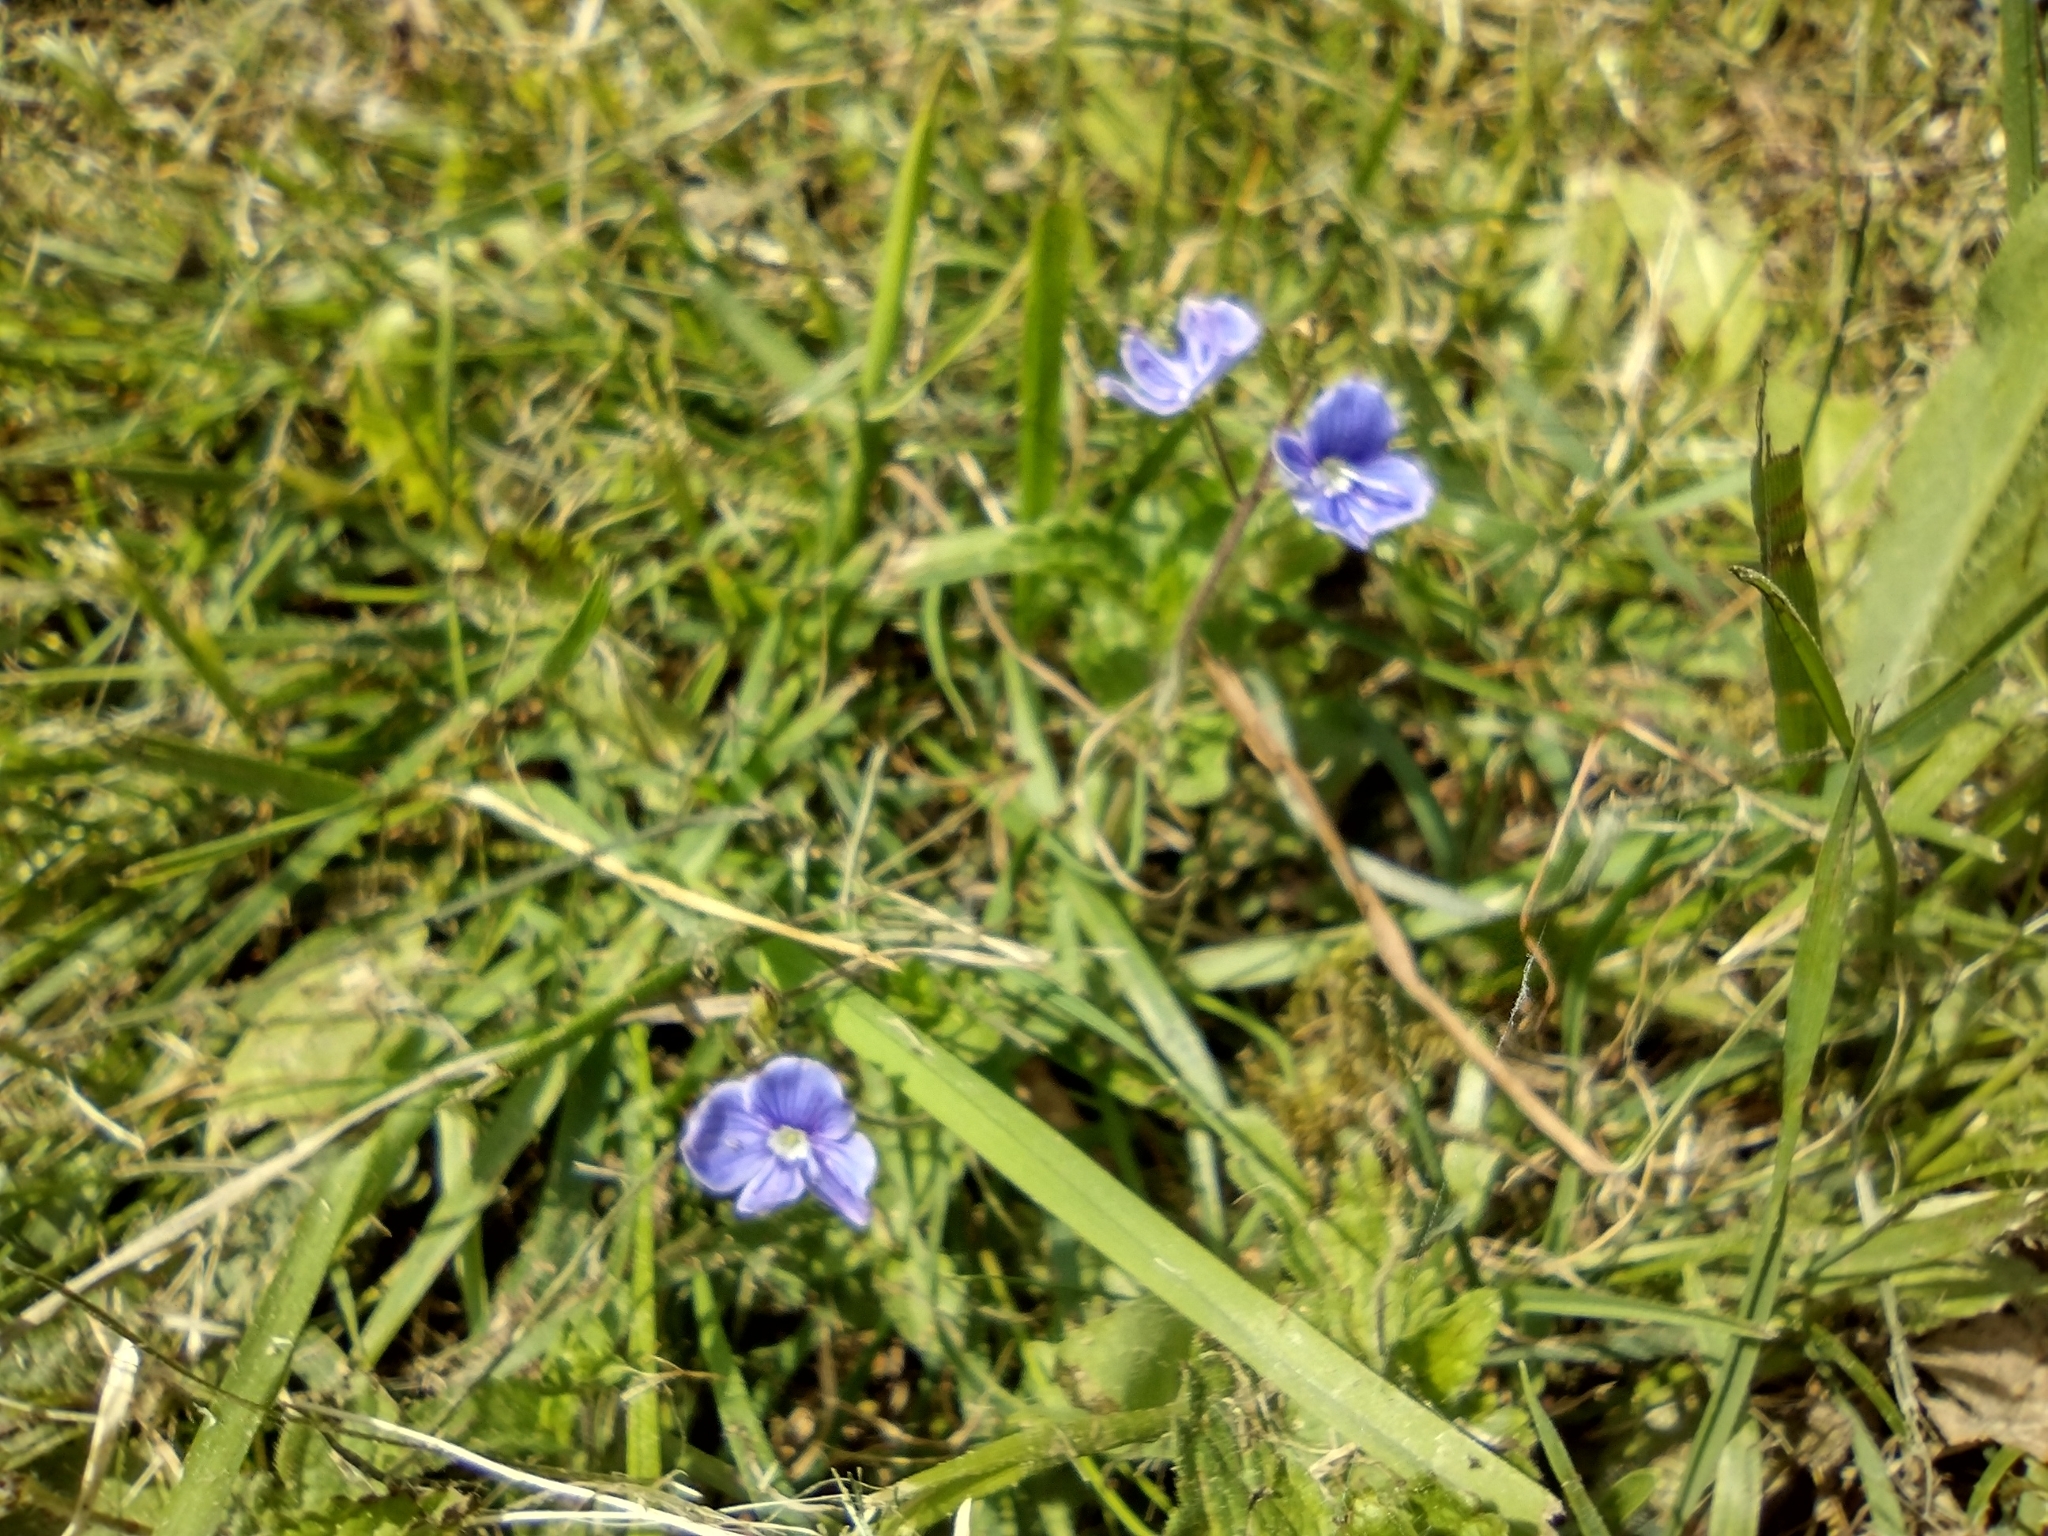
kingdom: Plantae
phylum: Tracheophyta
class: Magnoliopsida
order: Lamiales
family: Plantaginaceae
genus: Veronica
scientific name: Veronica chamaedrys
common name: Germander speedwell
